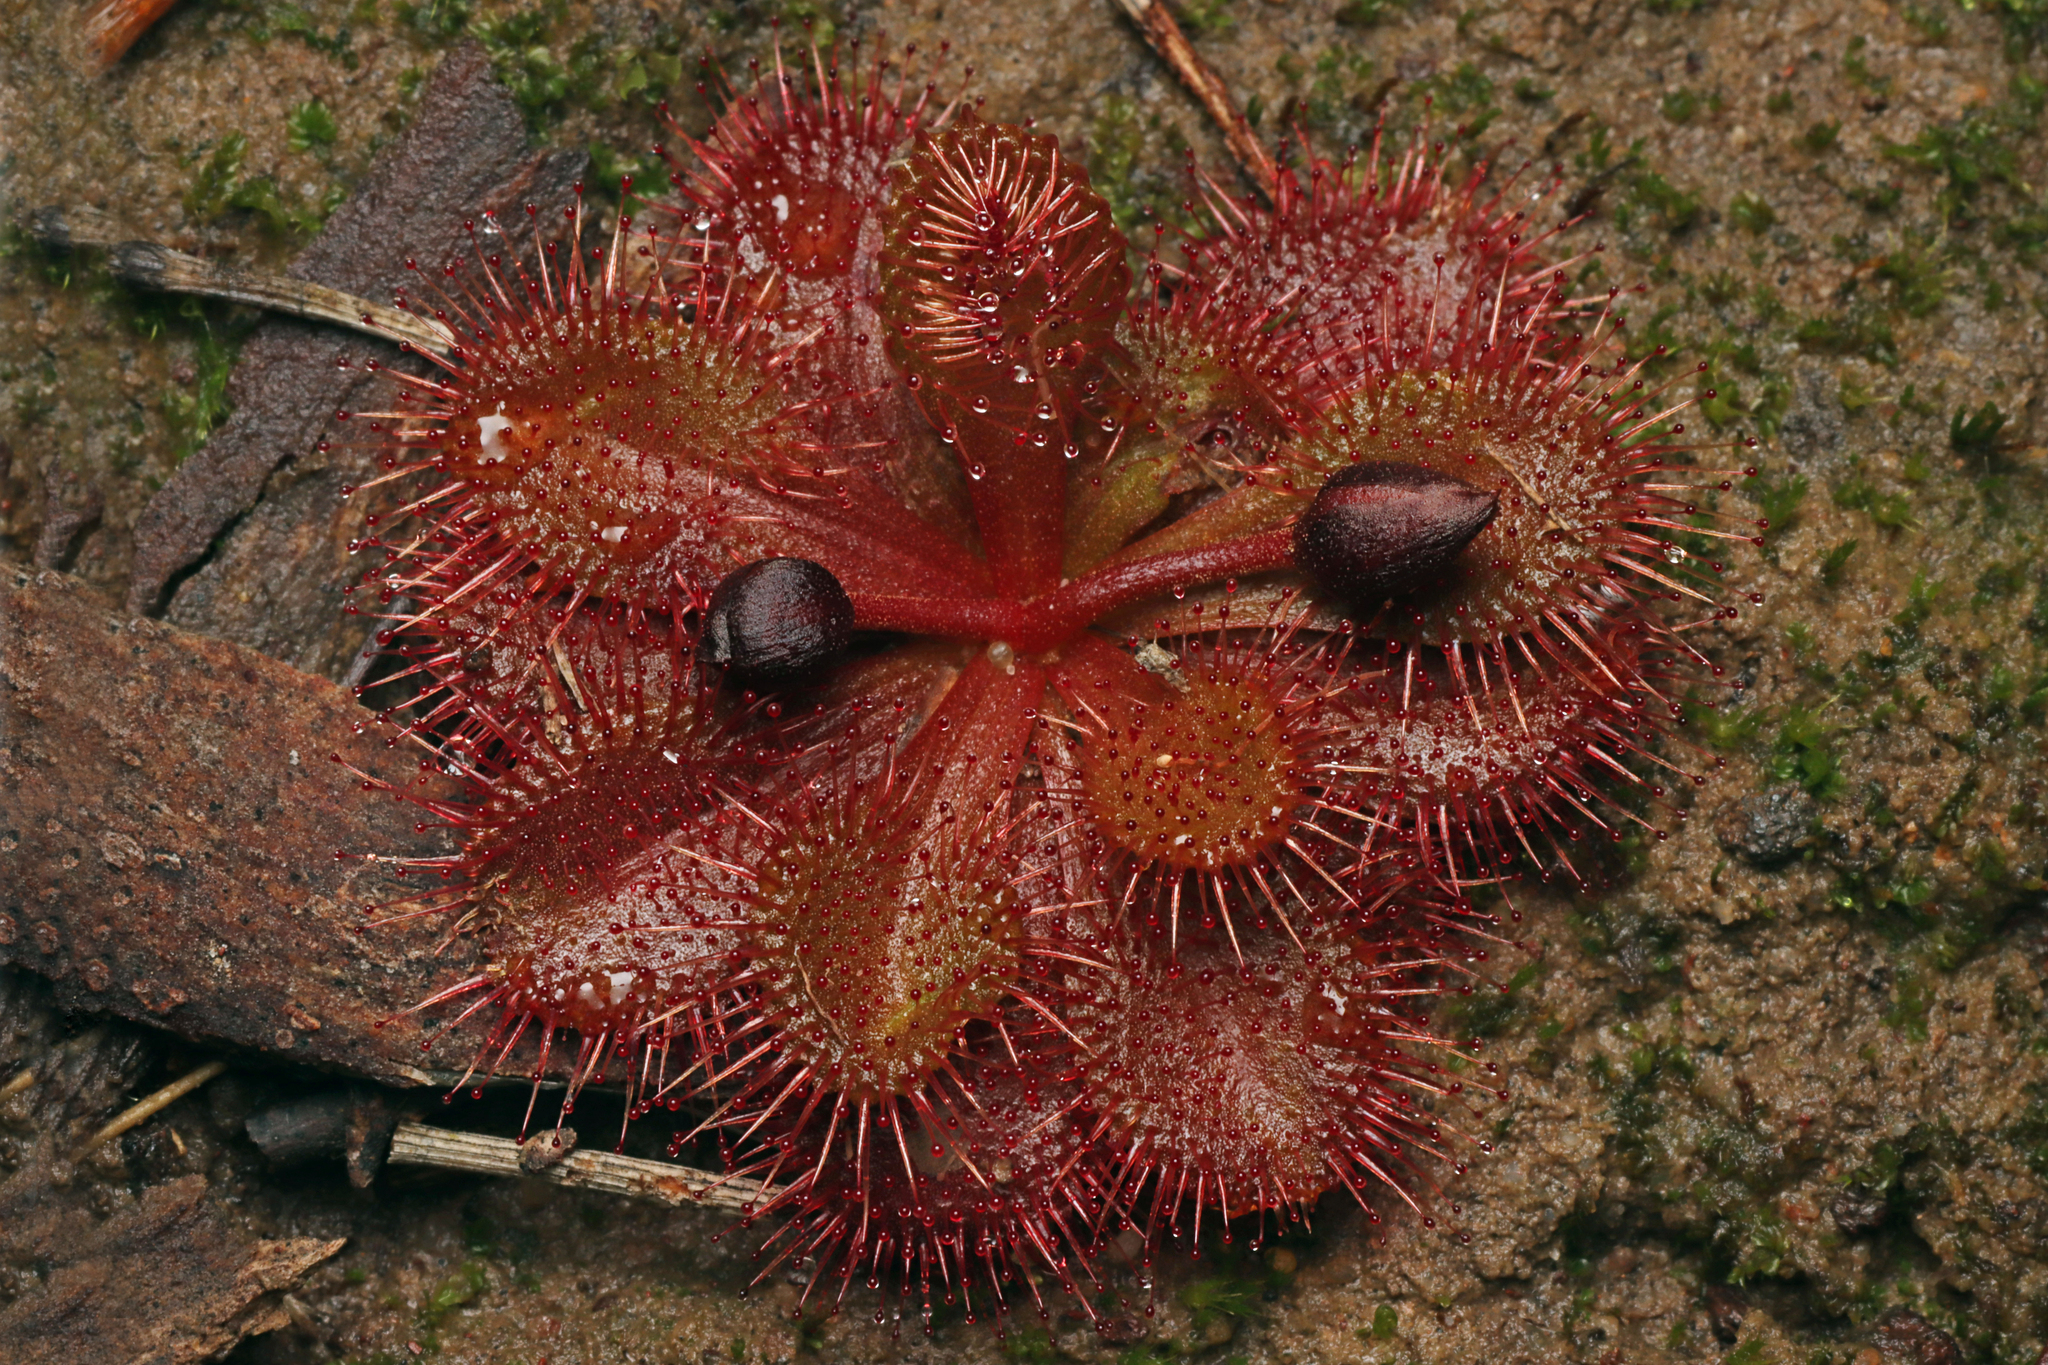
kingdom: Plantae
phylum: Tracheophyta
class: Magnoliopsida
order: Caryophyllales
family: Droseraceae
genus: Drosera
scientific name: Drosera whittakeri
